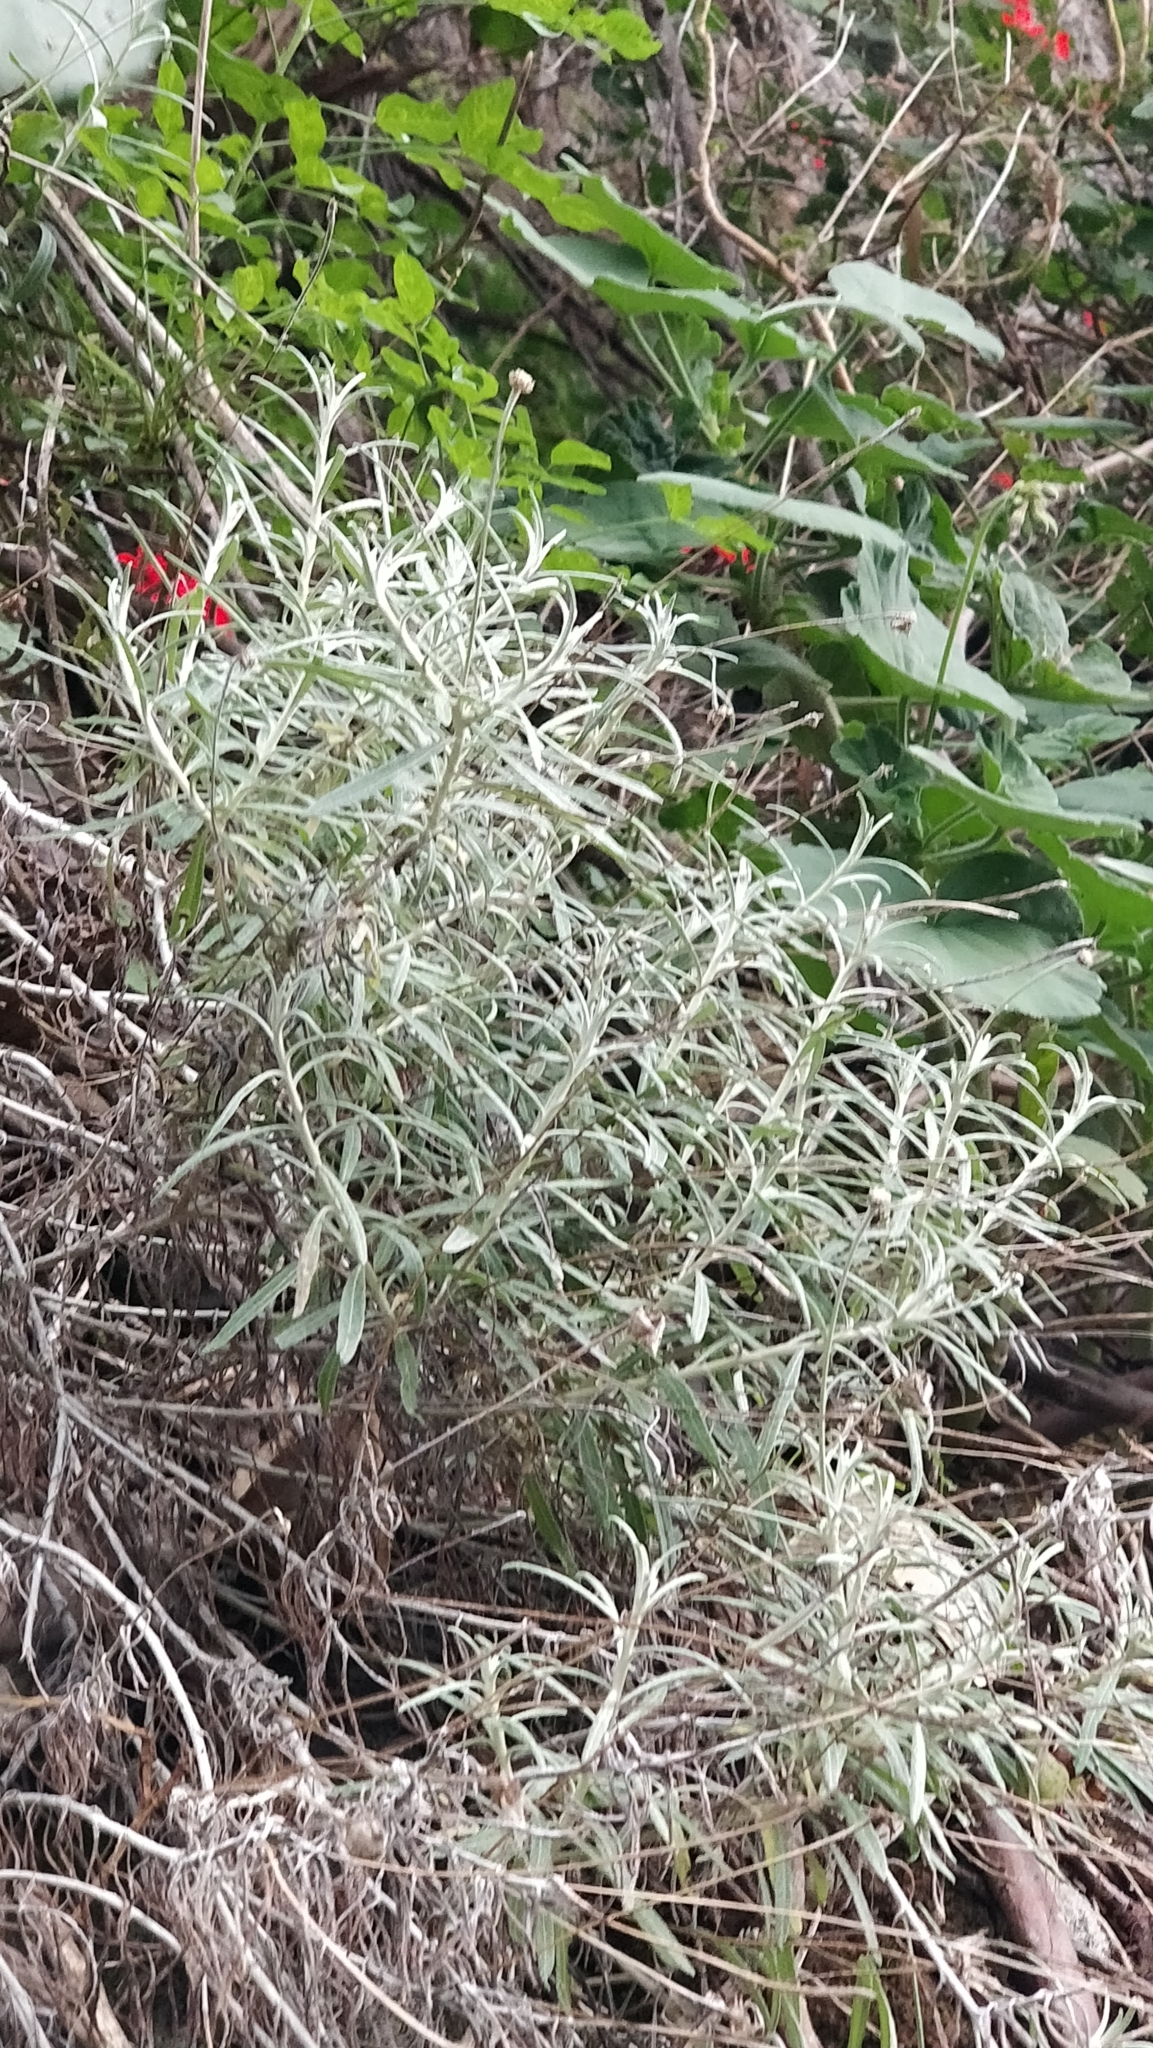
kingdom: Plantae
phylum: Tracheophyta
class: Magnoliopsida
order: Asterales
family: Asteraceae
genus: Phagnalon
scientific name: Phagnalon saxatile
